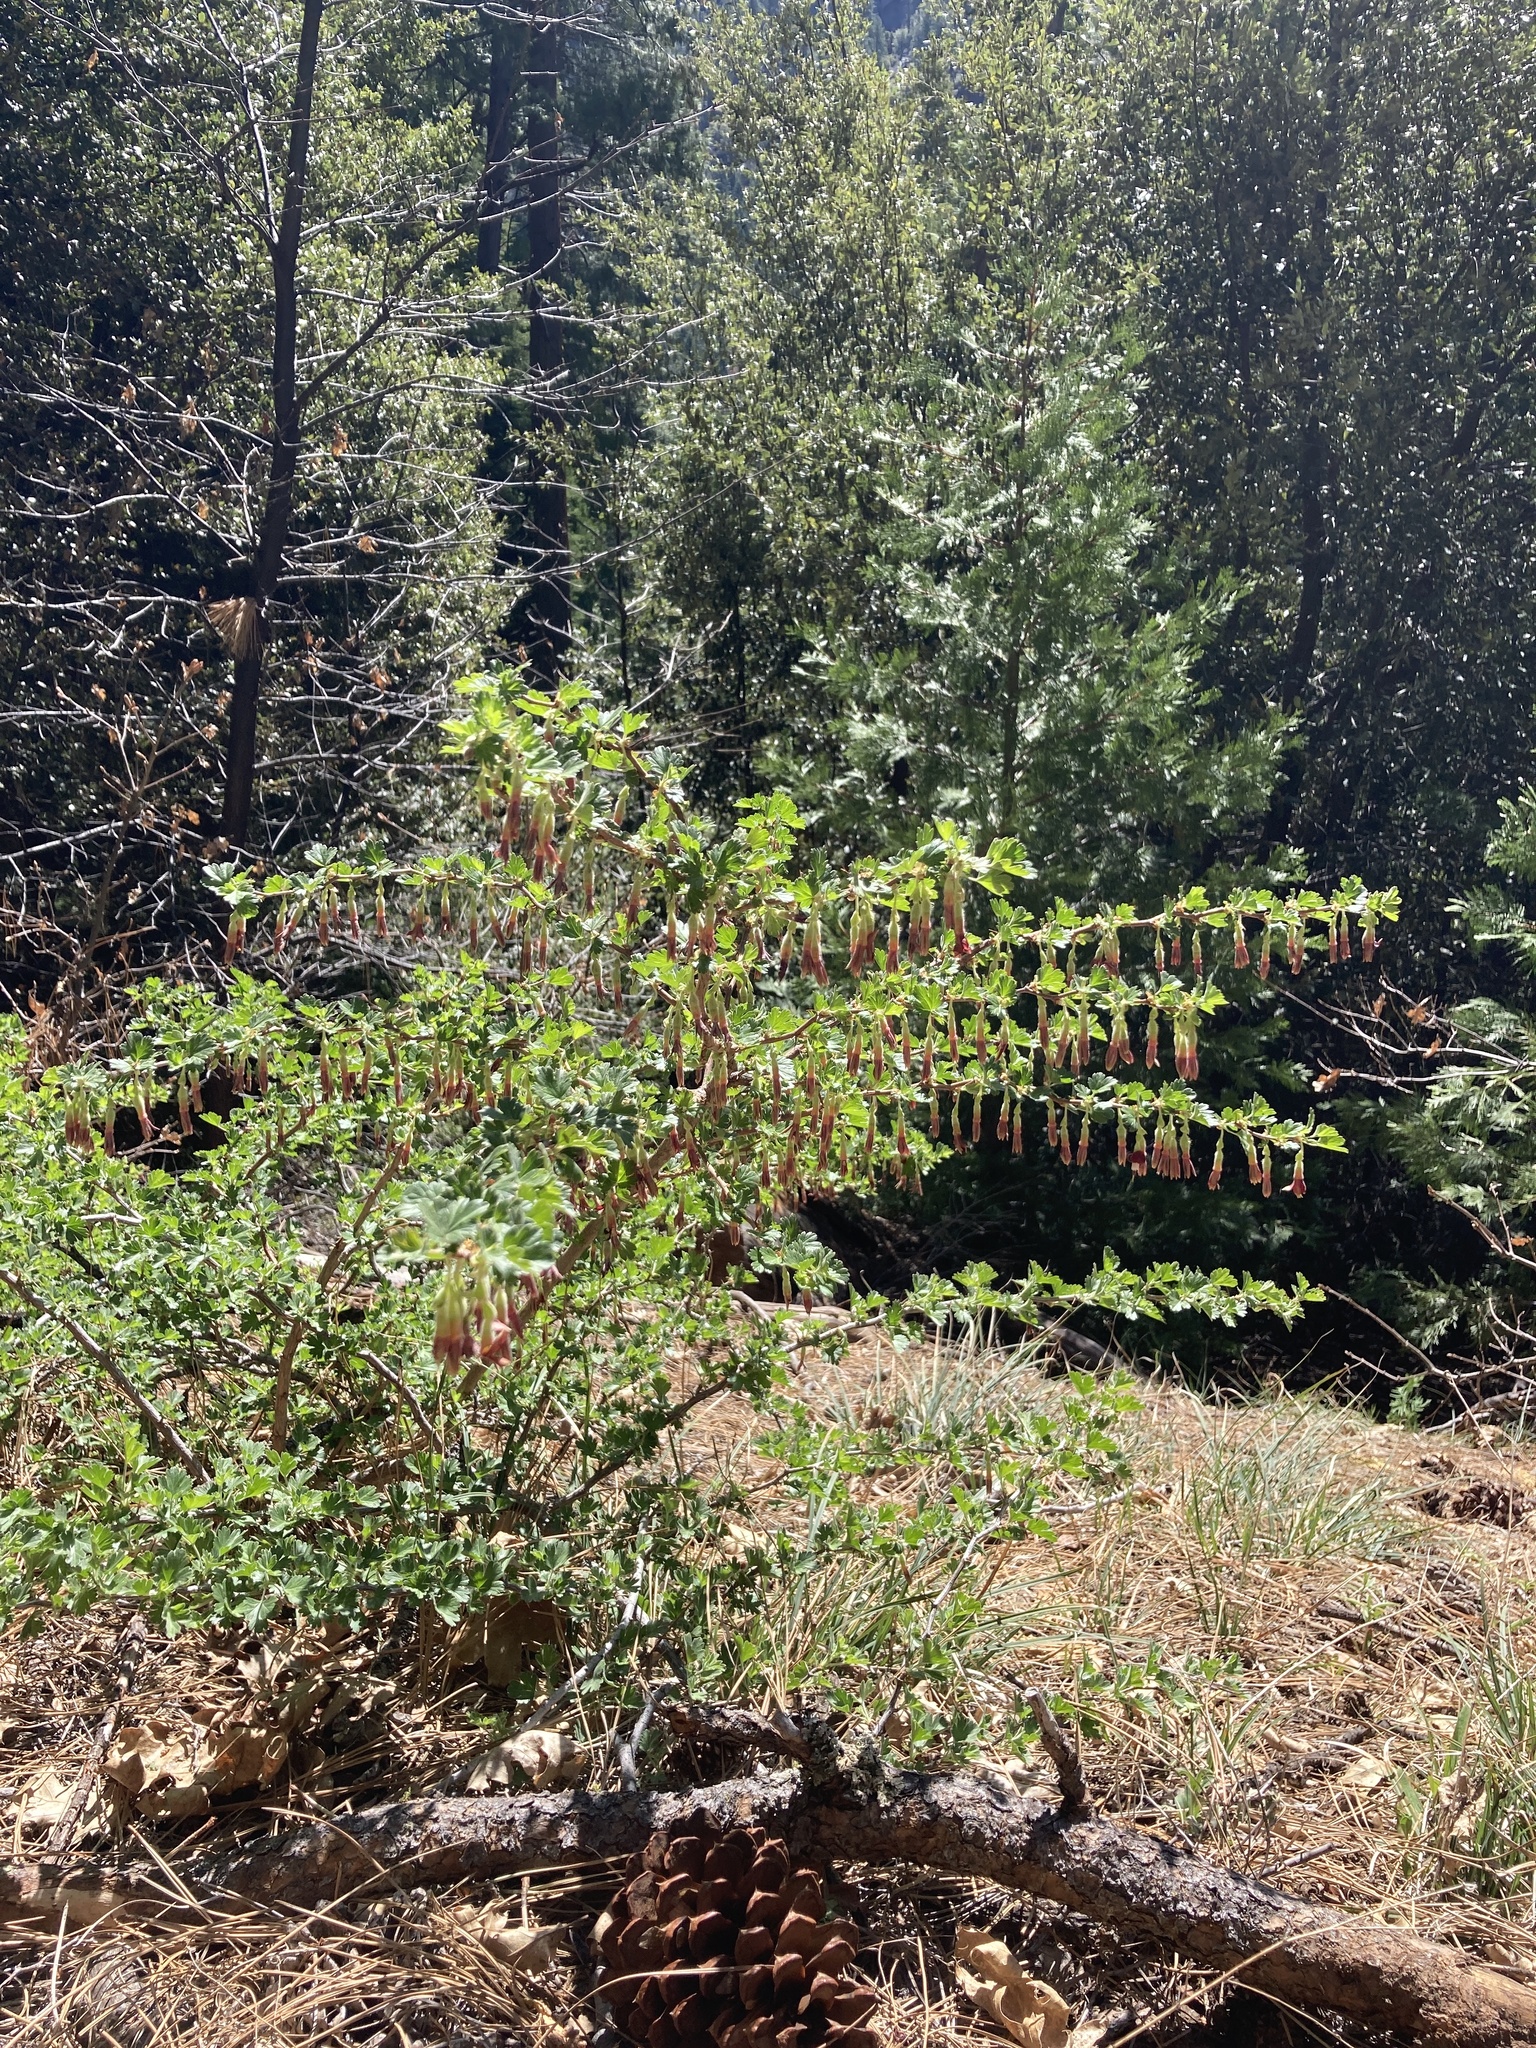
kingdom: Plantae
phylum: Tracheophyta
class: Magnoliopsida
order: Saxifragales
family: Grossulariaceae
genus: Ribes
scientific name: Ribes roezlii
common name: Sierra gooseberry
